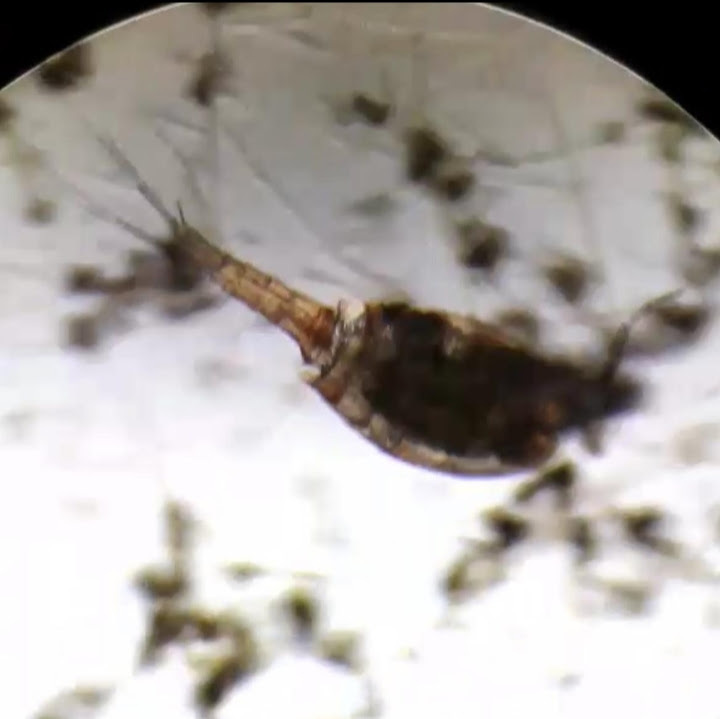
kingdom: Animalia
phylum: Arthropoda
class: Copepoda
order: Cyclopoida
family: Cyclopidae
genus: Eucyclops
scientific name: Eucyclops
